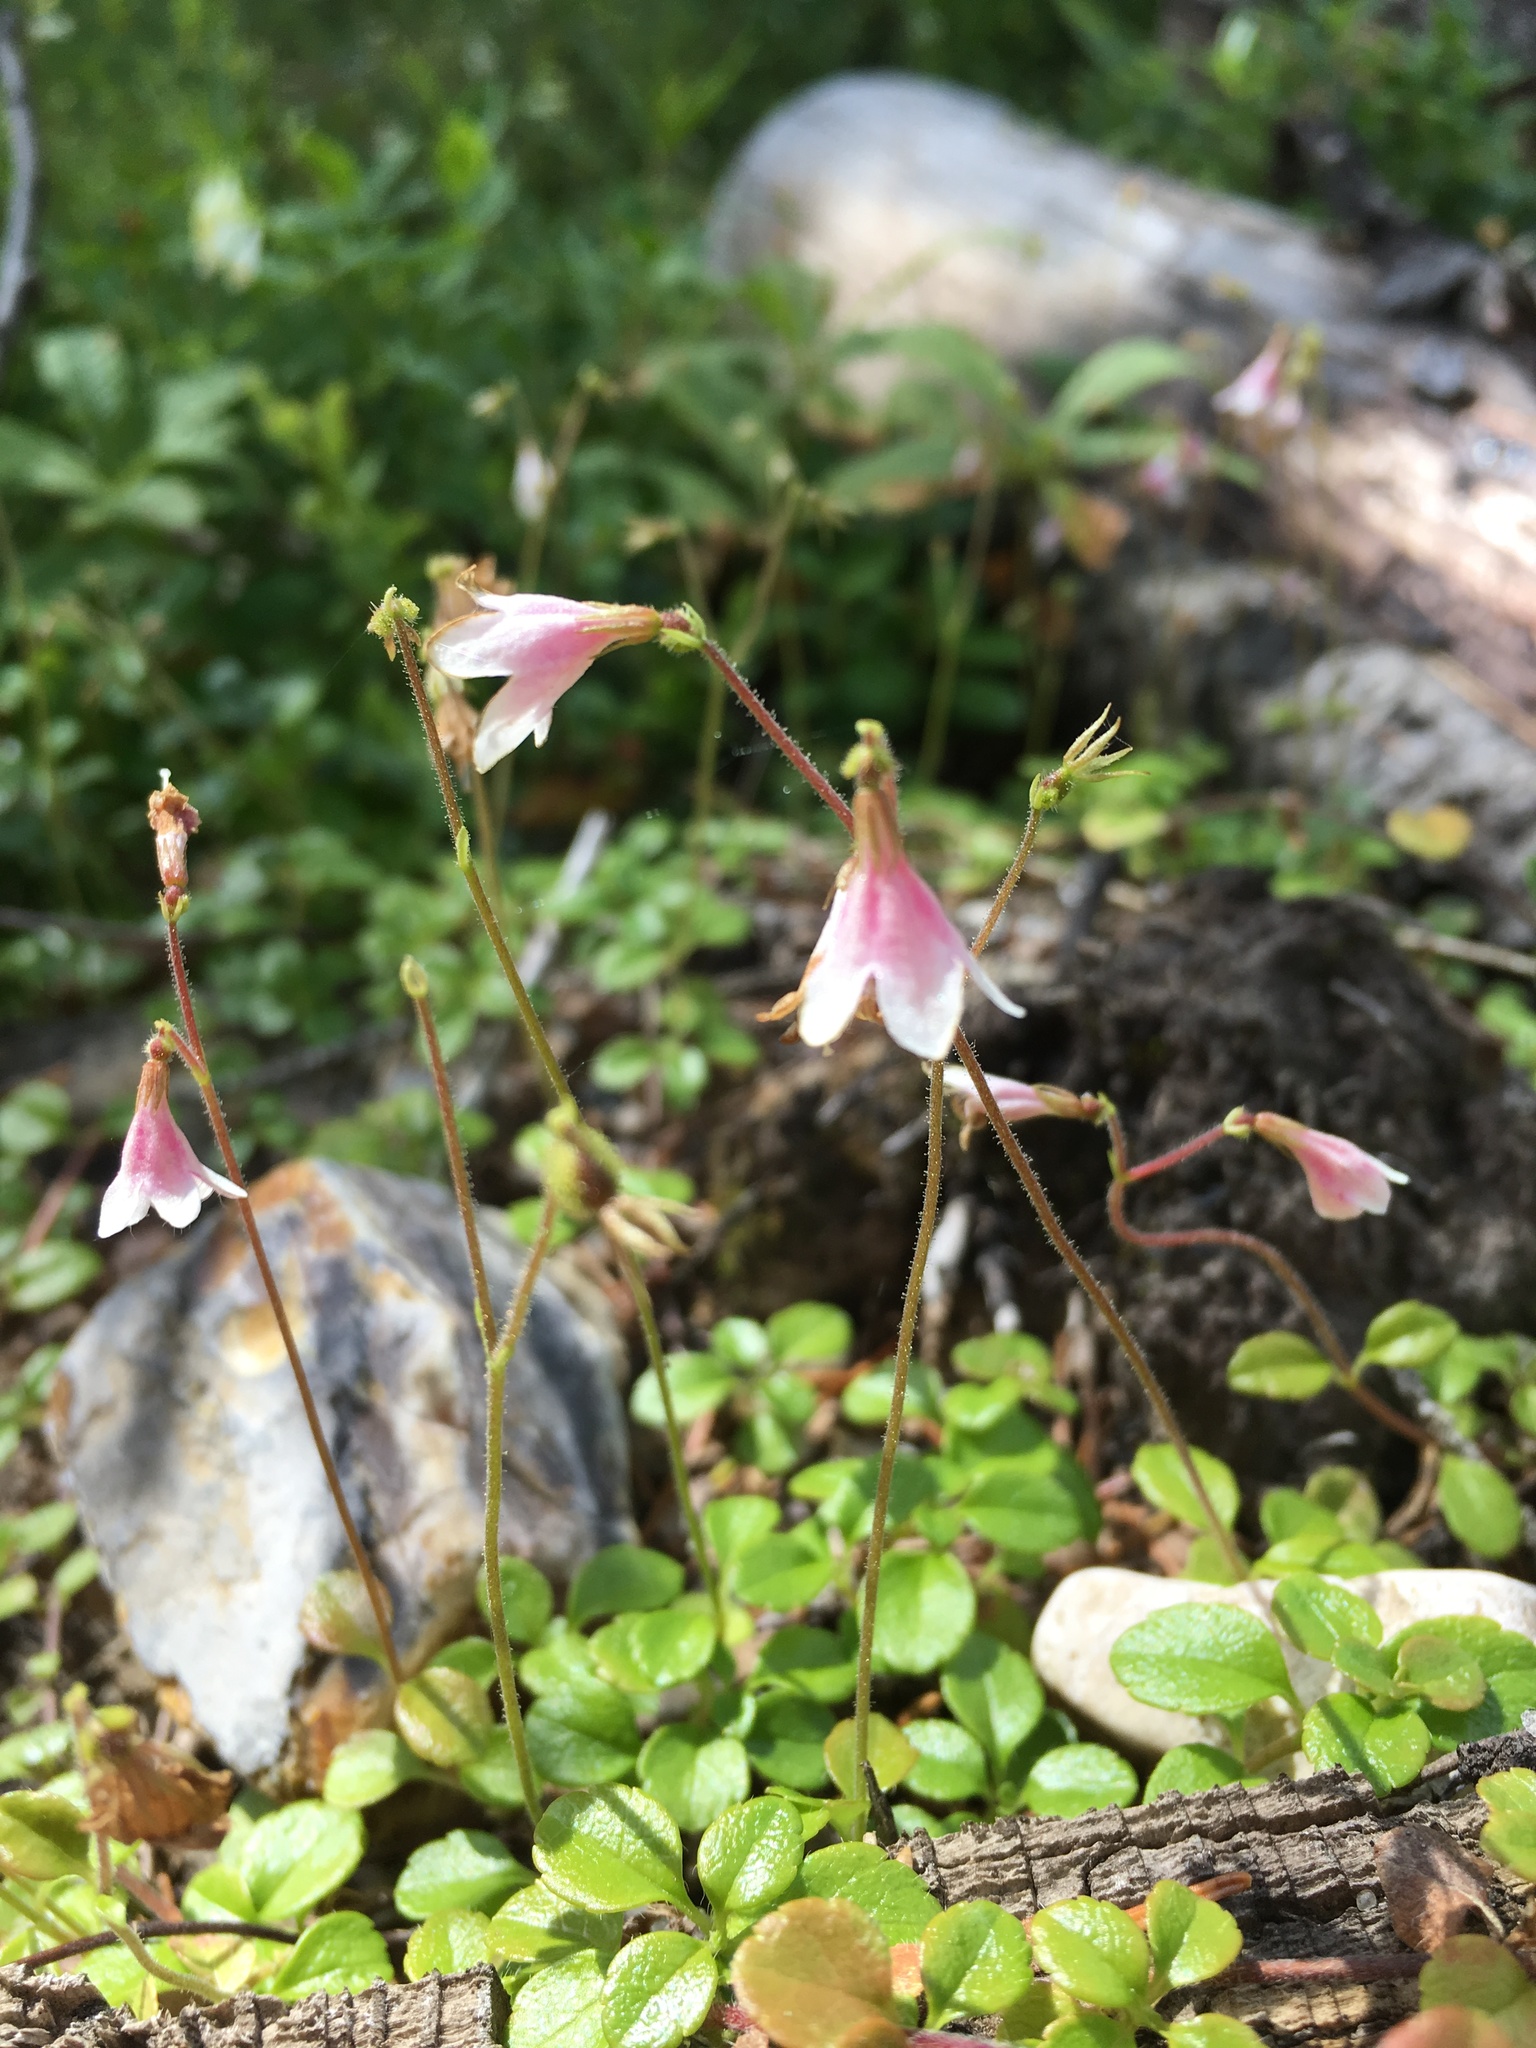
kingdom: Plantae
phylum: Tracheophyta
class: Magnoliopsida
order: Dipsacales
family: Caprifoliaceae
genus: Linnaea
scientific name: Linnaea borealis
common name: Twinflower
